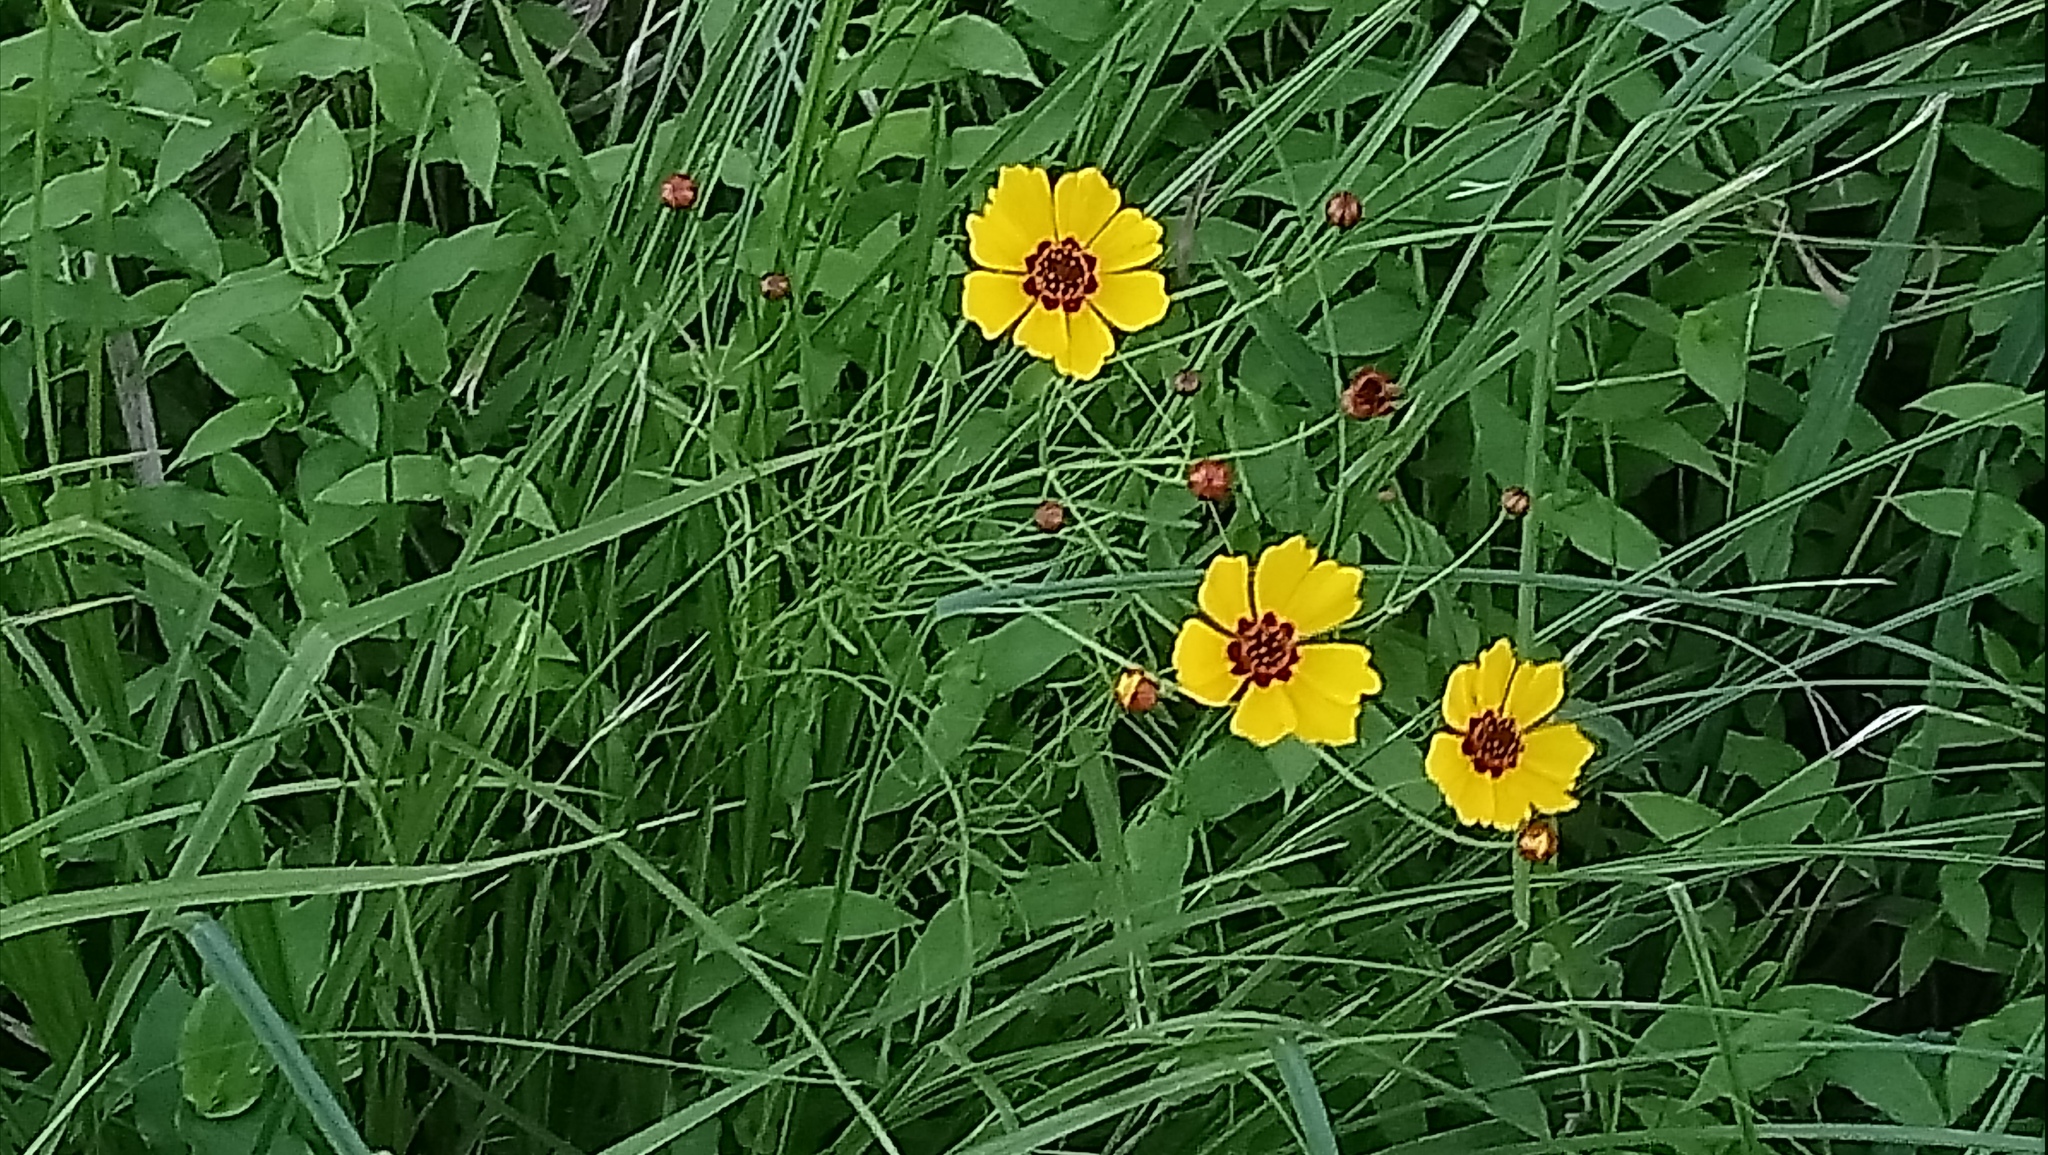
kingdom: Plantae
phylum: Tracheophyta
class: Magnoliopsida
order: Asterales
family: Asteraceae
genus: Coreopsis
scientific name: Coreopsis tinctoria
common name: Garden tickseed
